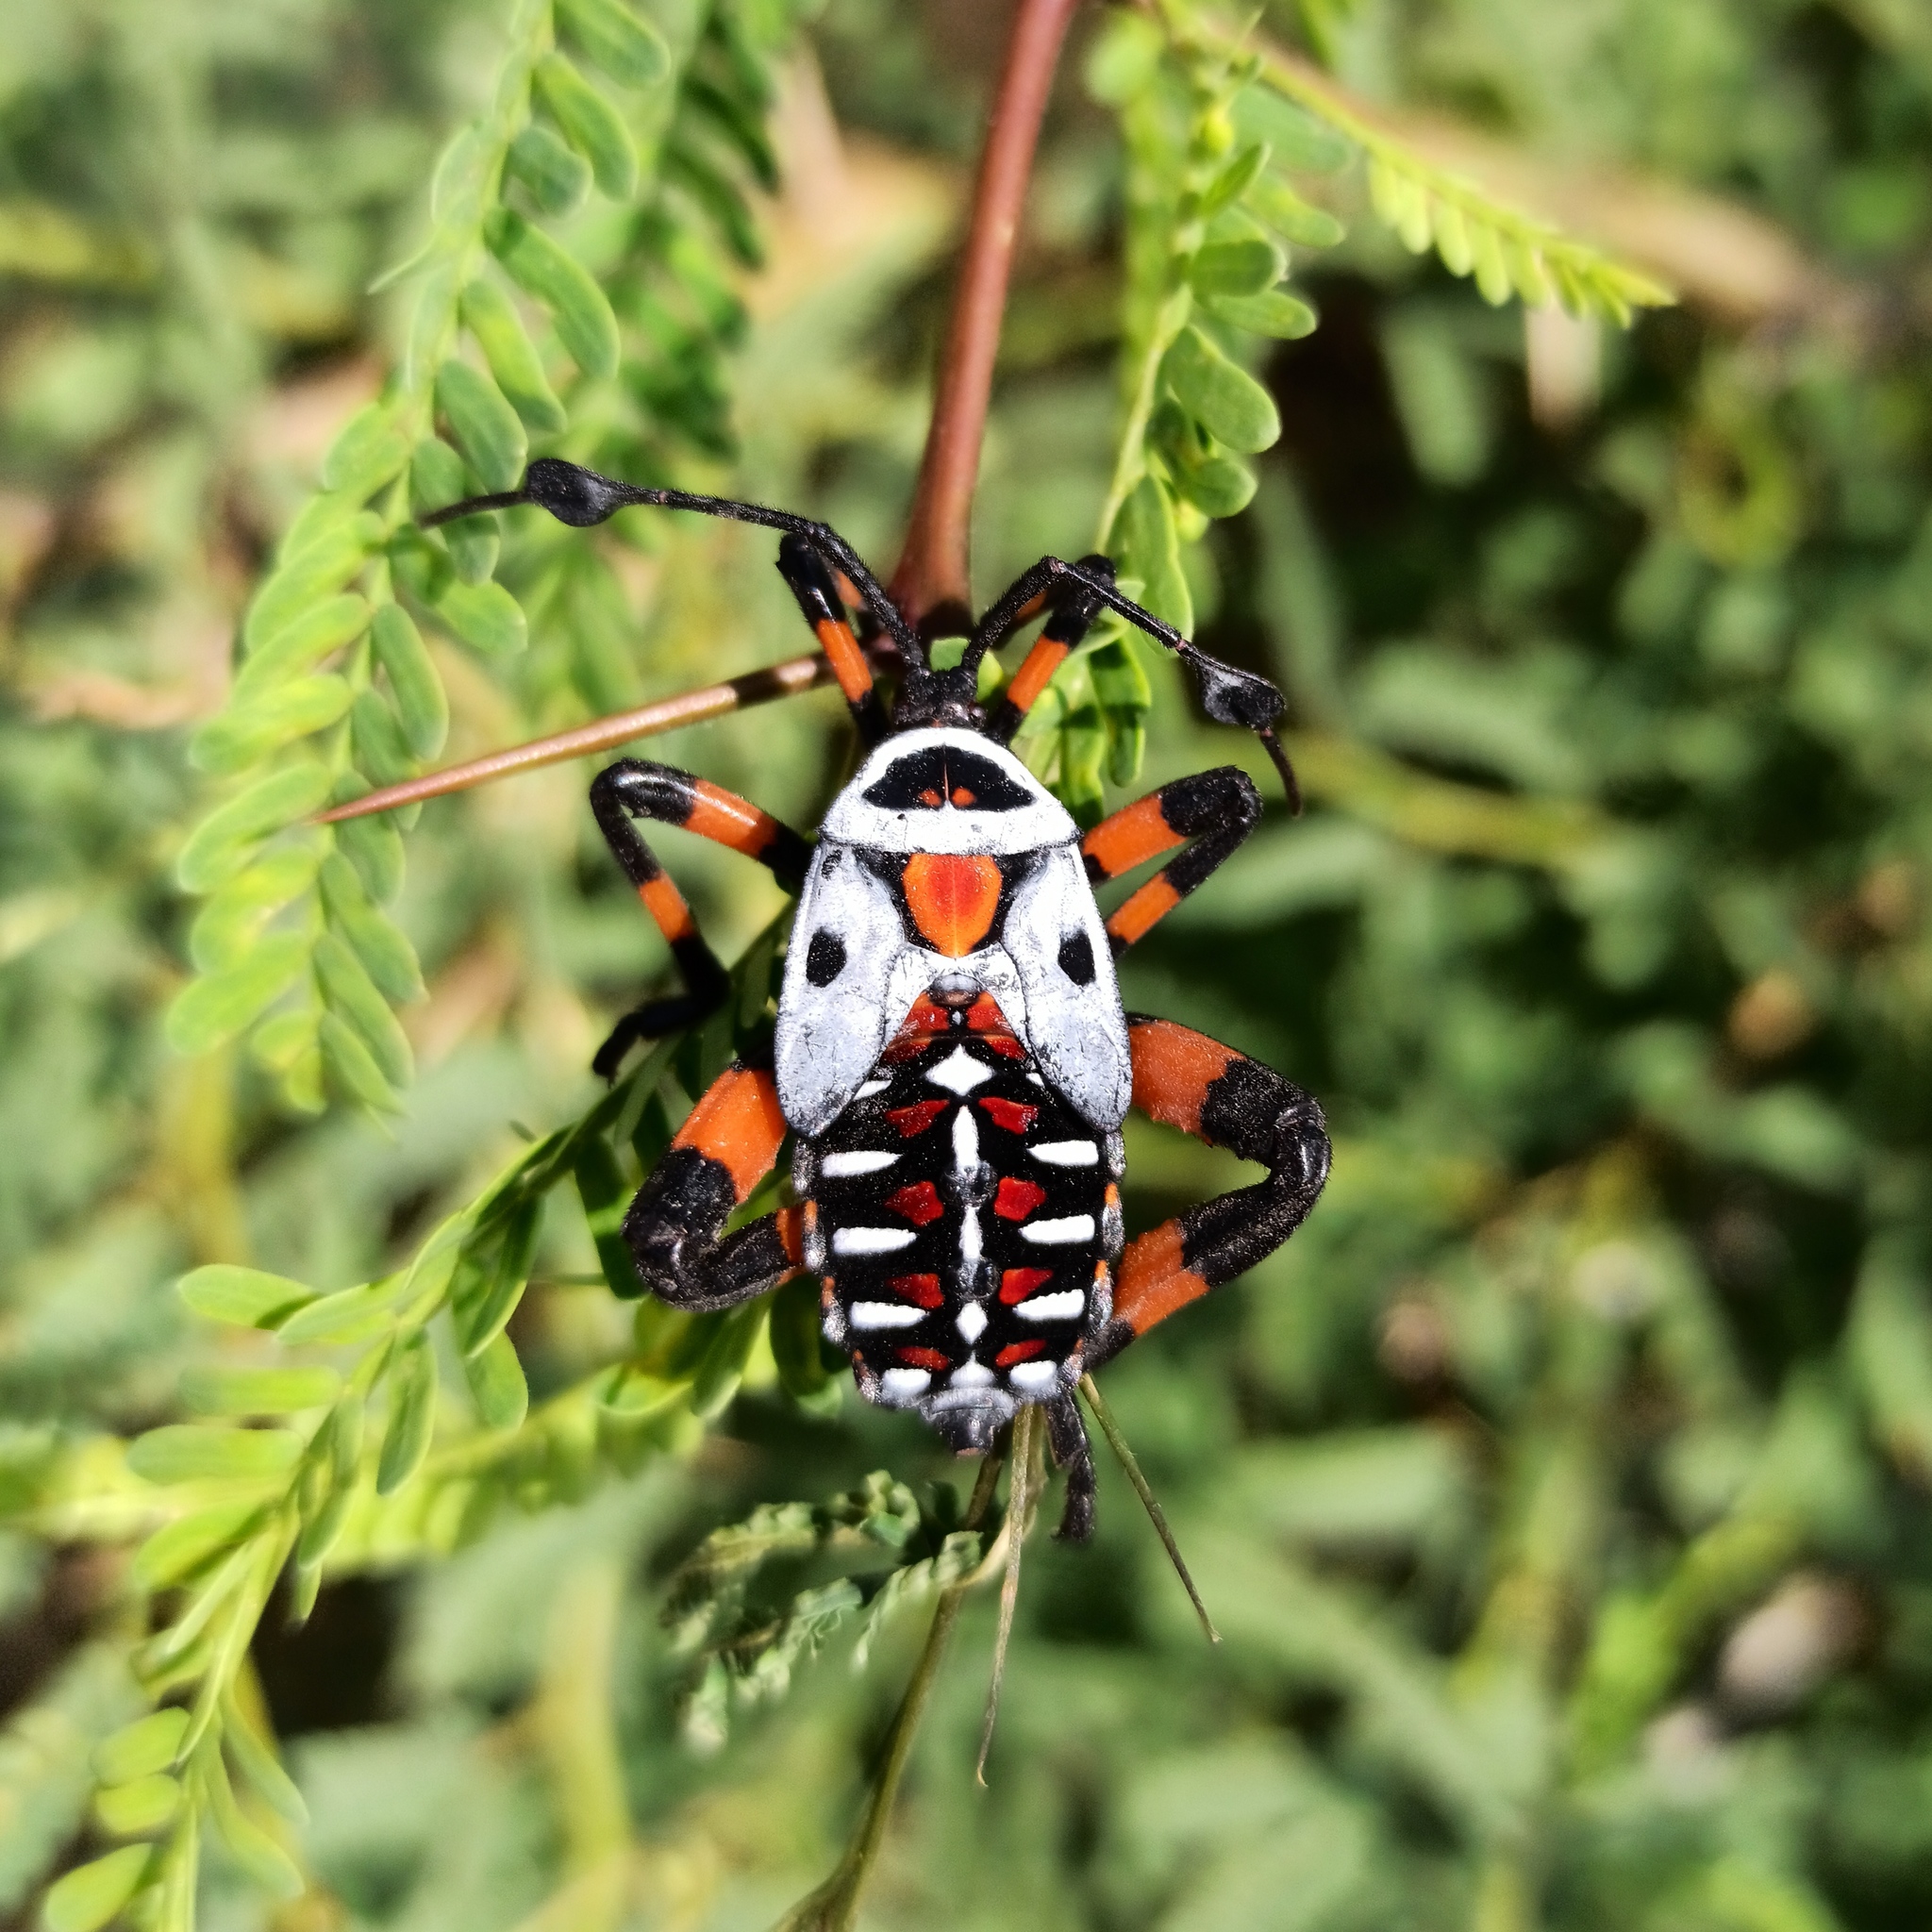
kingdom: Animalia
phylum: Arthropoda
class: Insecta
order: Hemiptera
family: Coreidae
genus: Thasus
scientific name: Thasus
